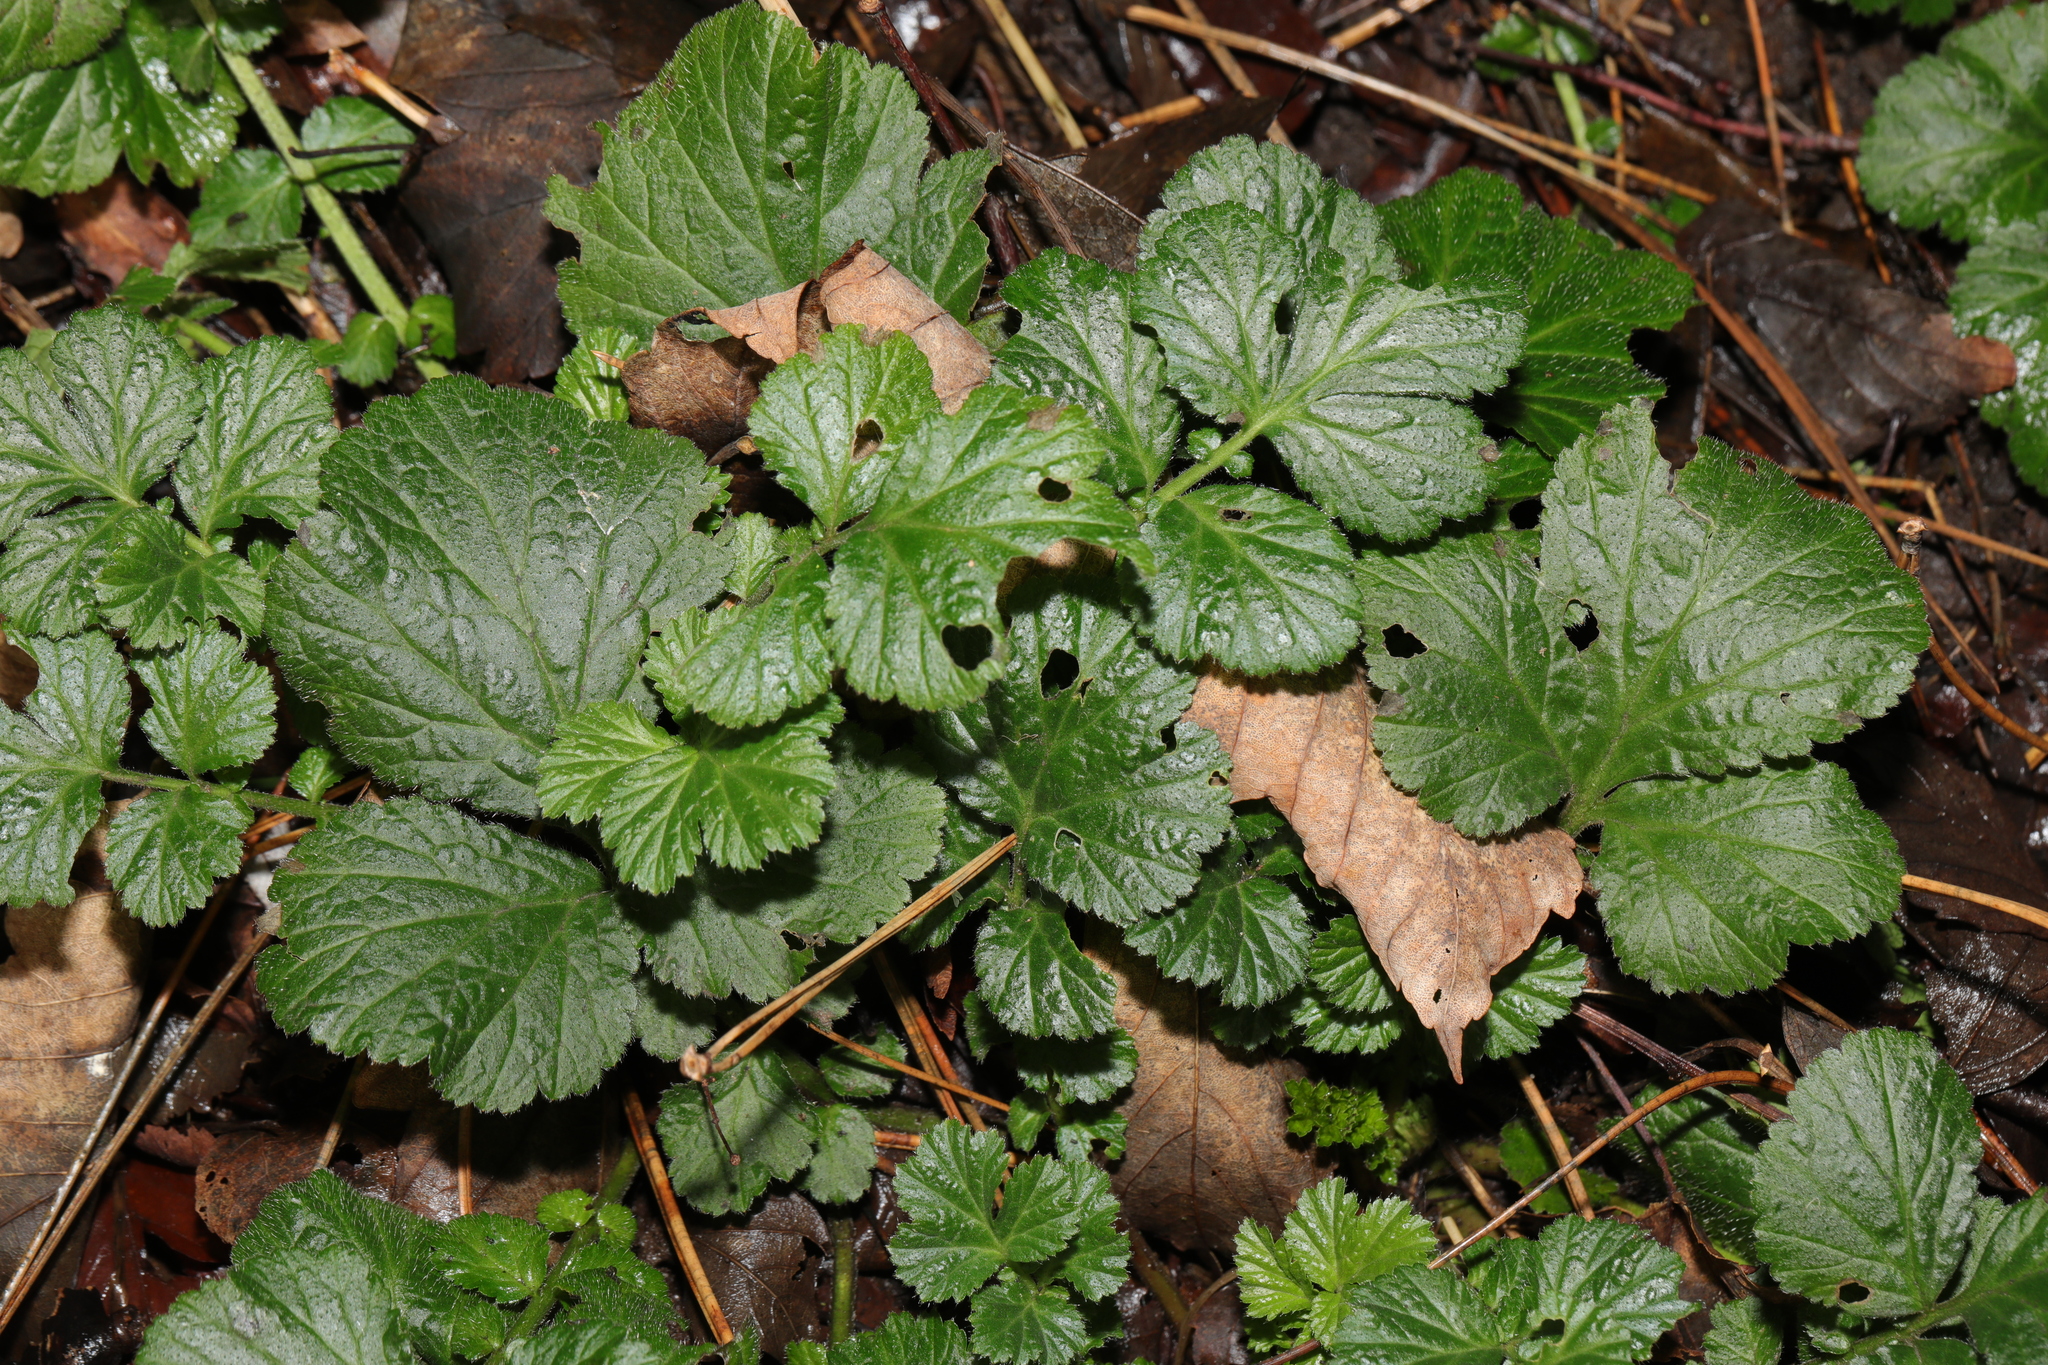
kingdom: Plantae
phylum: Tracheophyta
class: Magnoliopsida
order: Rosales
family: Rosaceae
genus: Geum
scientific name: Geum urbanum
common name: Wood avens
